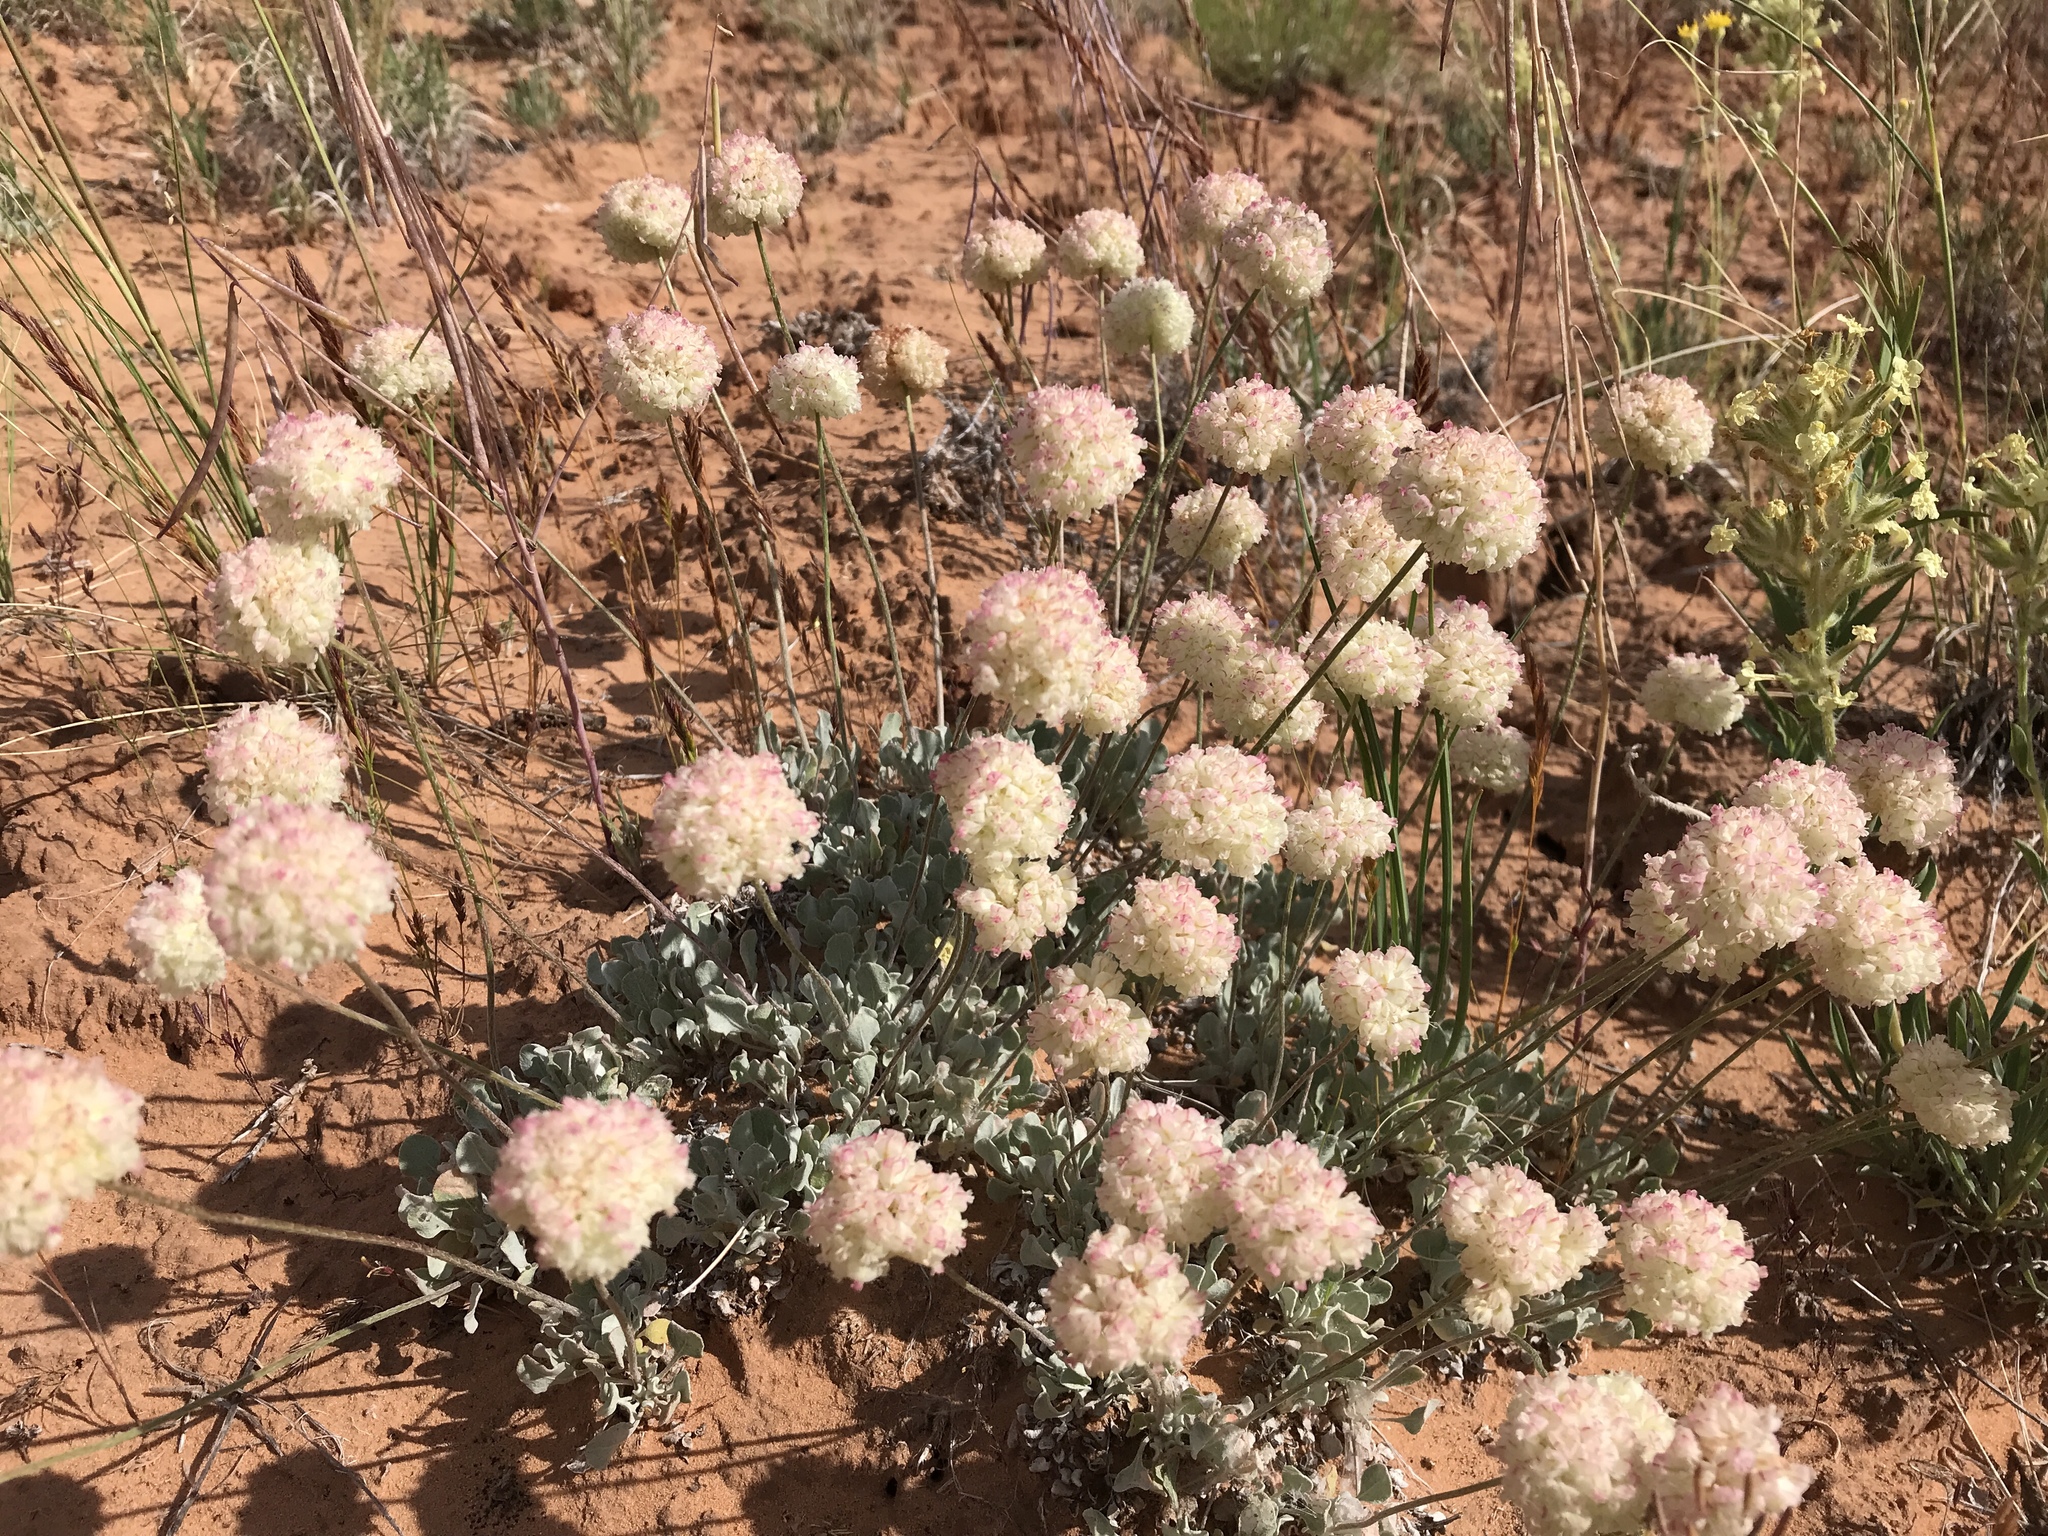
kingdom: Plantae
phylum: Tracheophyta
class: Magnoliopsida
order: Caryophyllales
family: Polygonaceae
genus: Eriogonum
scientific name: Eriogonum ovalifolium
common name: Cushion buckwheat
